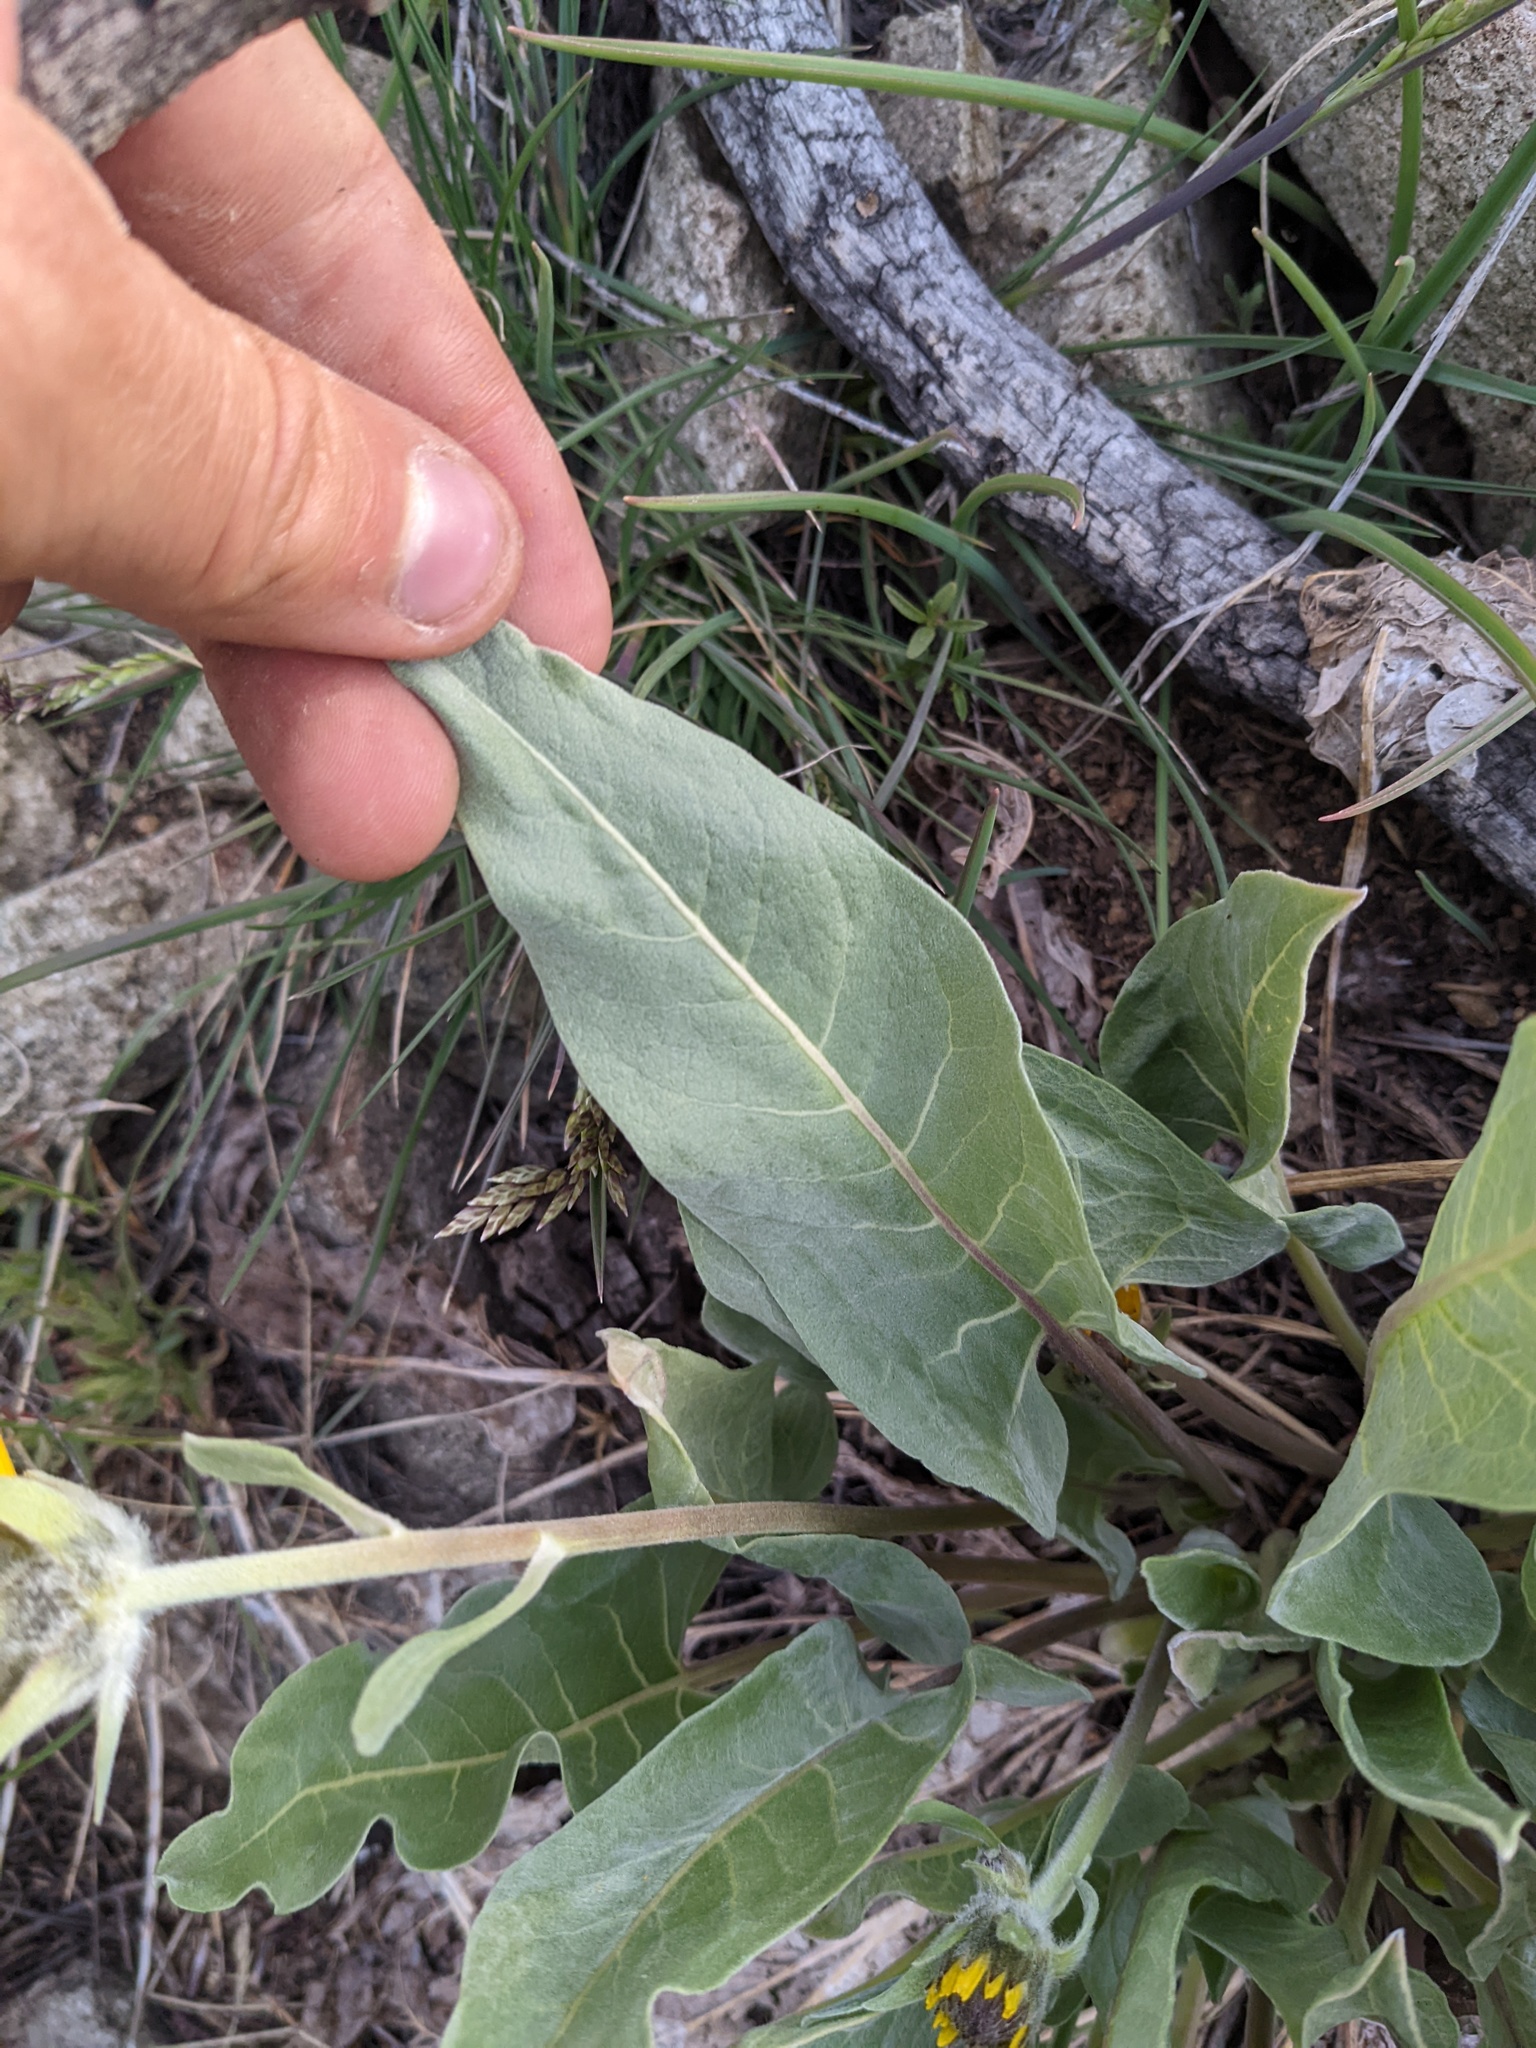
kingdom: Plantae
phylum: Tracheophyta
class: Magnoliopsida
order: Asterales
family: Asteraceae
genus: Wyethia
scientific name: Wyethia sagittata
